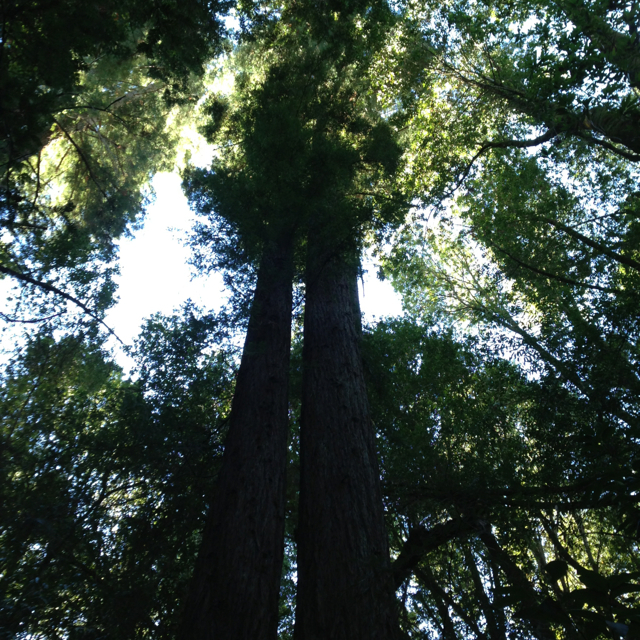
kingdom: Plantae
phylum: Tracheophyta
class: Pinopsida
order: Pinales
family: Cupressaceae
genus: Sequoia
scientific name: Sequoia sempervirens
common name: Coast redwood
